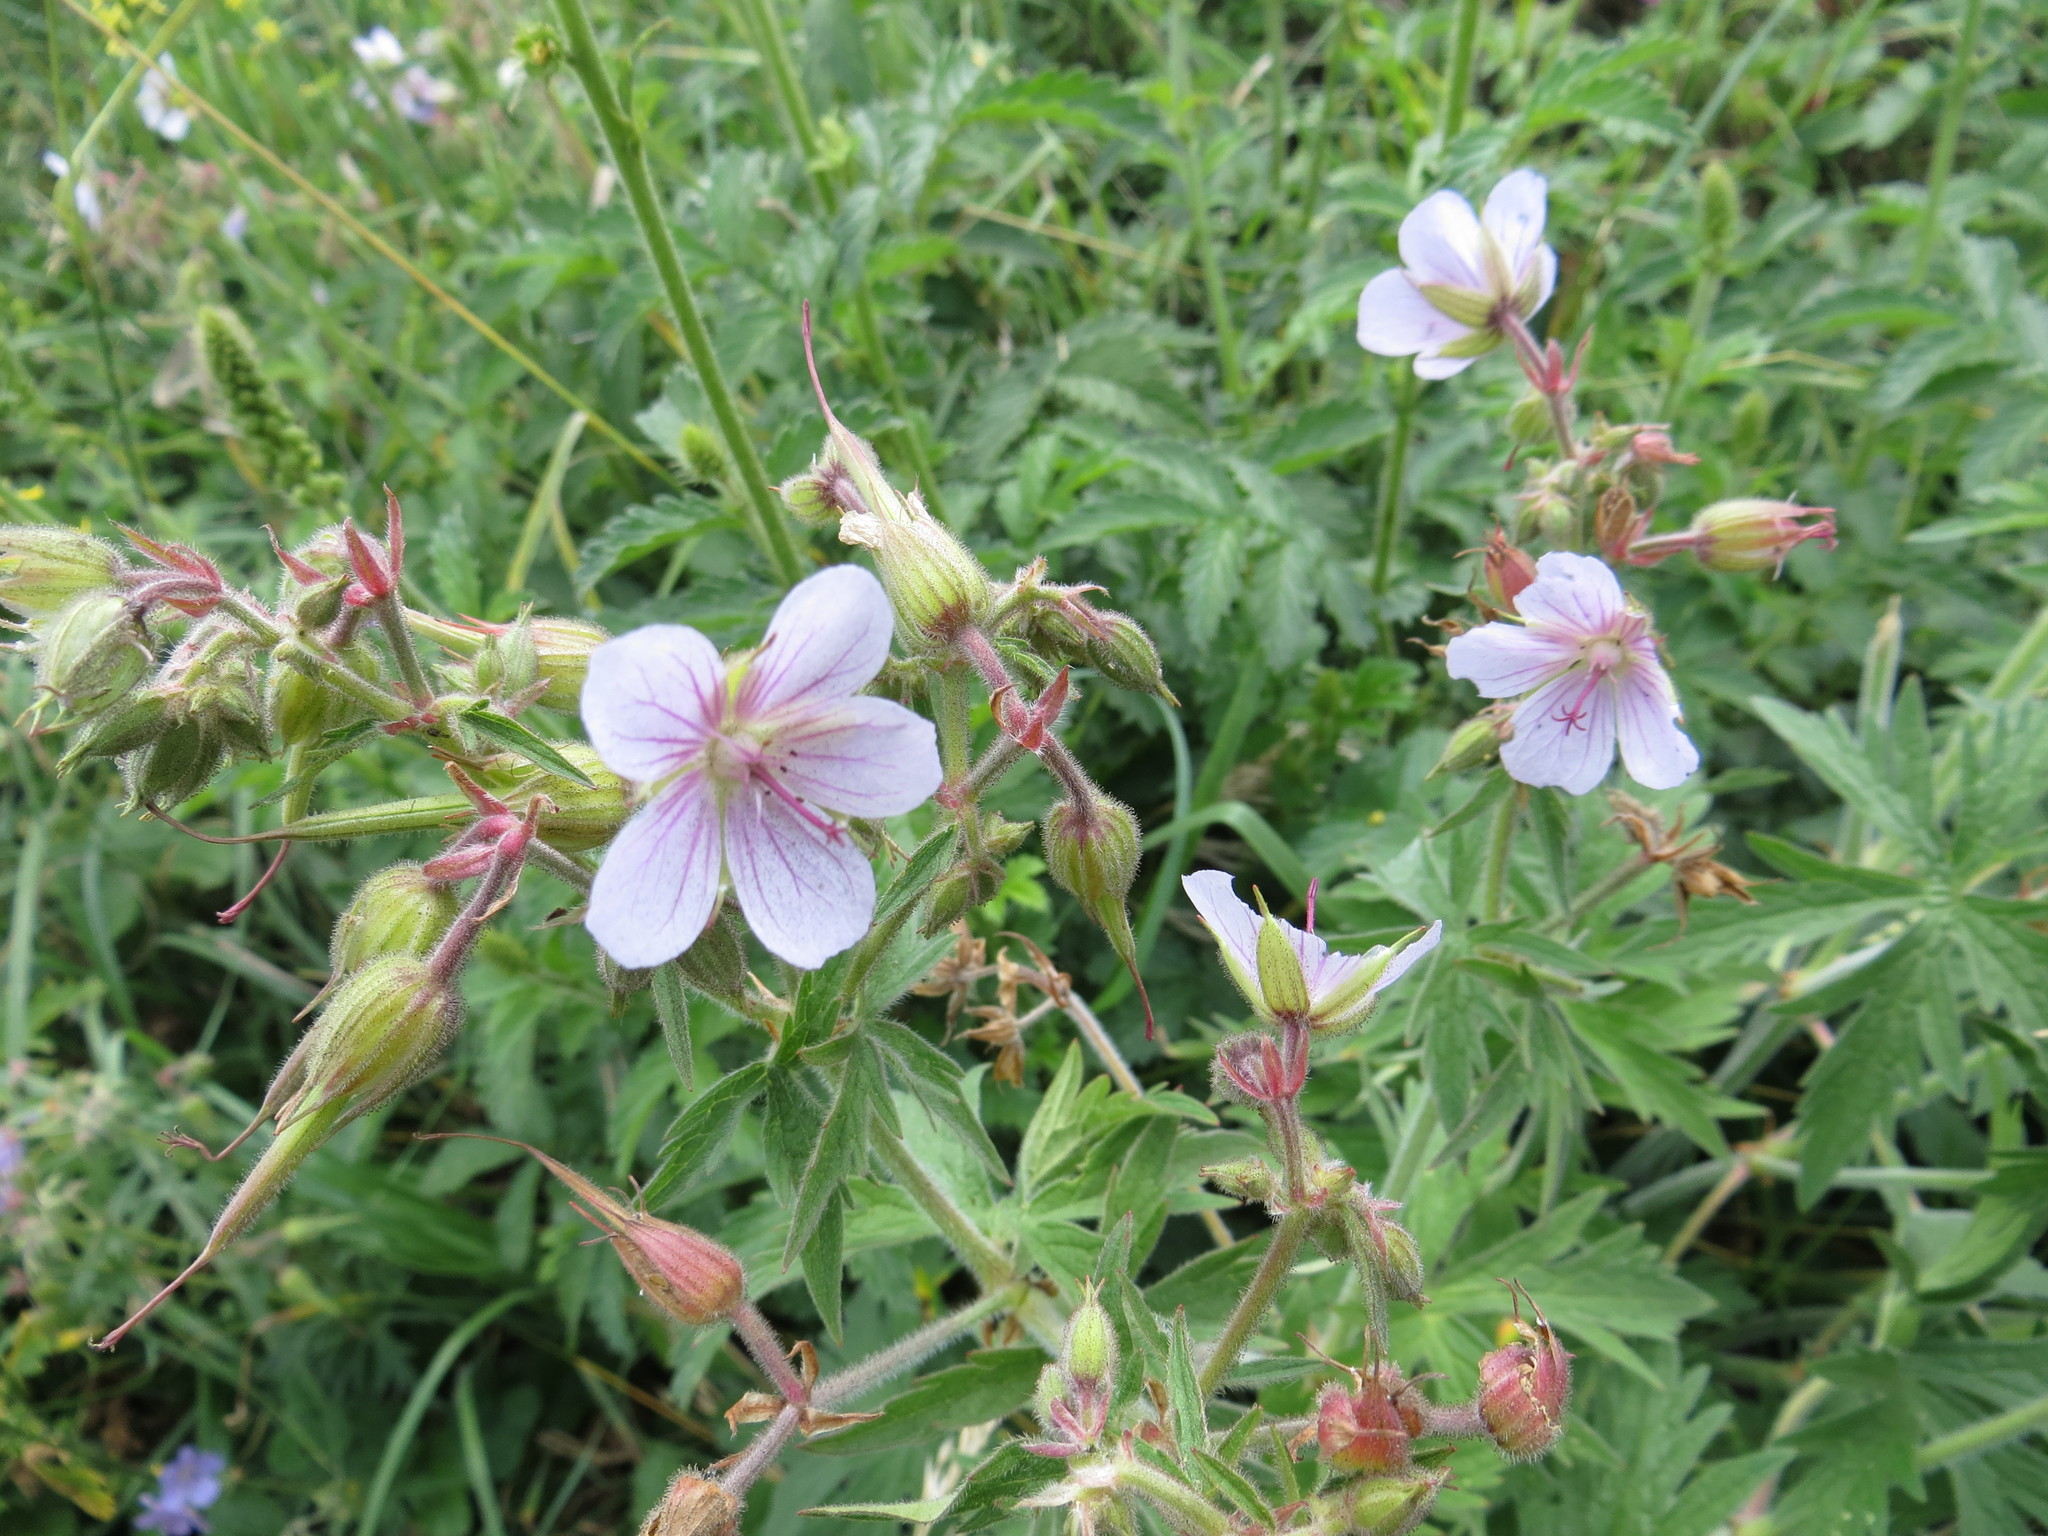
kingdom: Plantae
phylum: Tracheophyta
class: Magnoliopsida
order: Geraniales
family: Geraniaceae
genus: Geranium
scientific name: Geranium pratense
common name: Meadow crane's-bill
